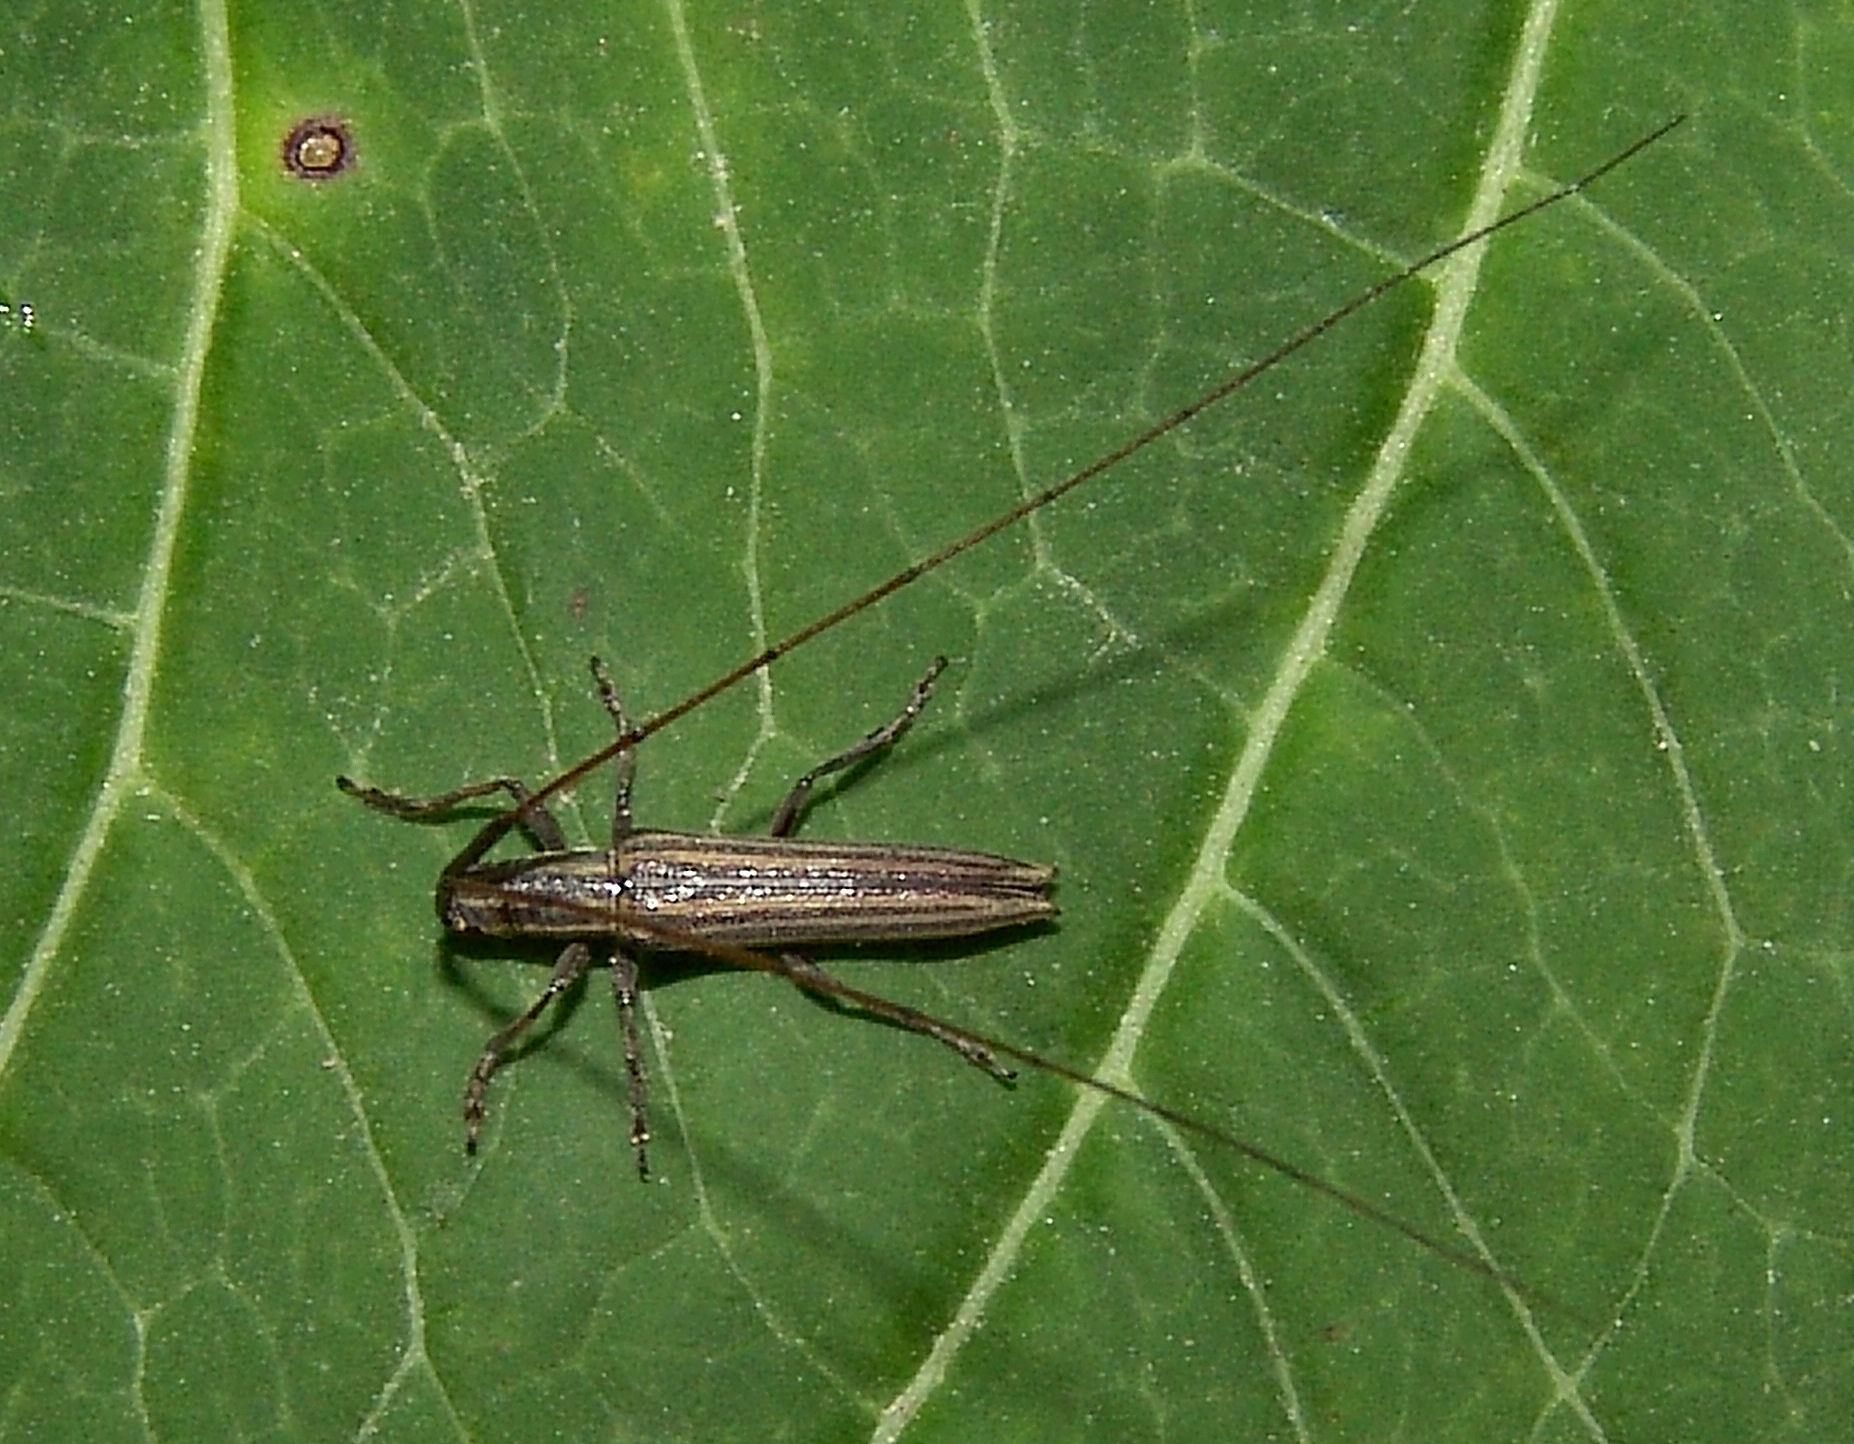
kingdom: Animalia
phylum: Arthropoda
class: Insecta
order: Coleoptera
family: Cerambycidae
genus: Hippopsis
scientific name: Hippopsis
